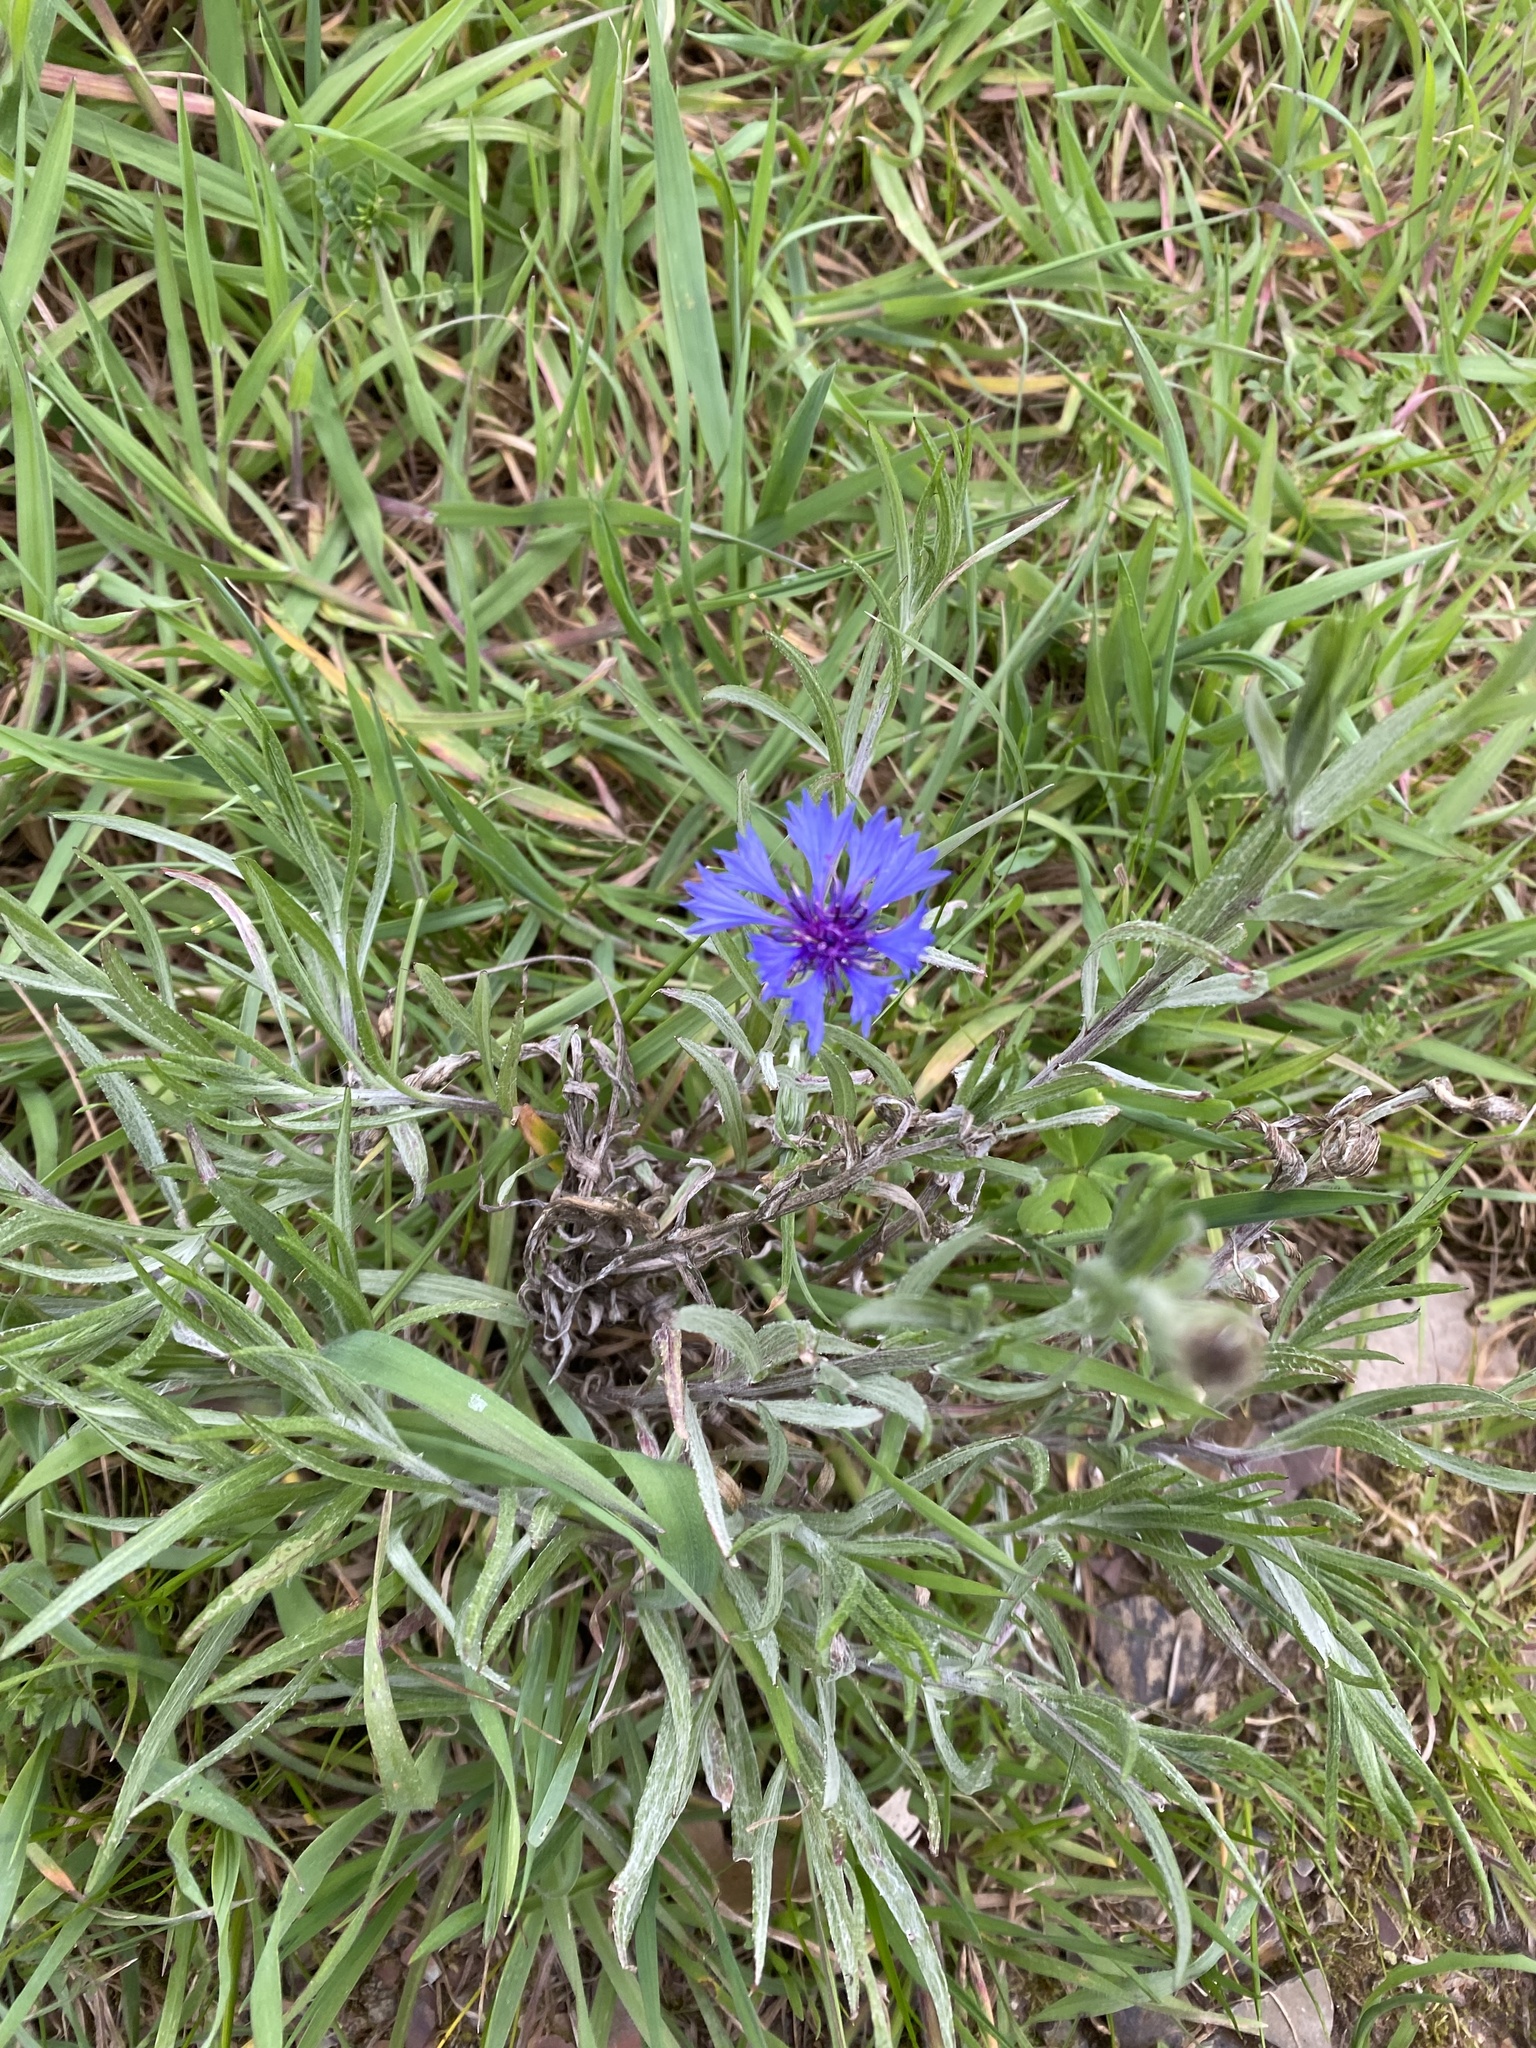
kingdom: Plantae
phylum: Tracheophyta
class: Magnoliopsida
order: Asterales
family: Asteraceae
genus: Centaurea
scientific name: Centaurea cyanus
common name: Cornflower
